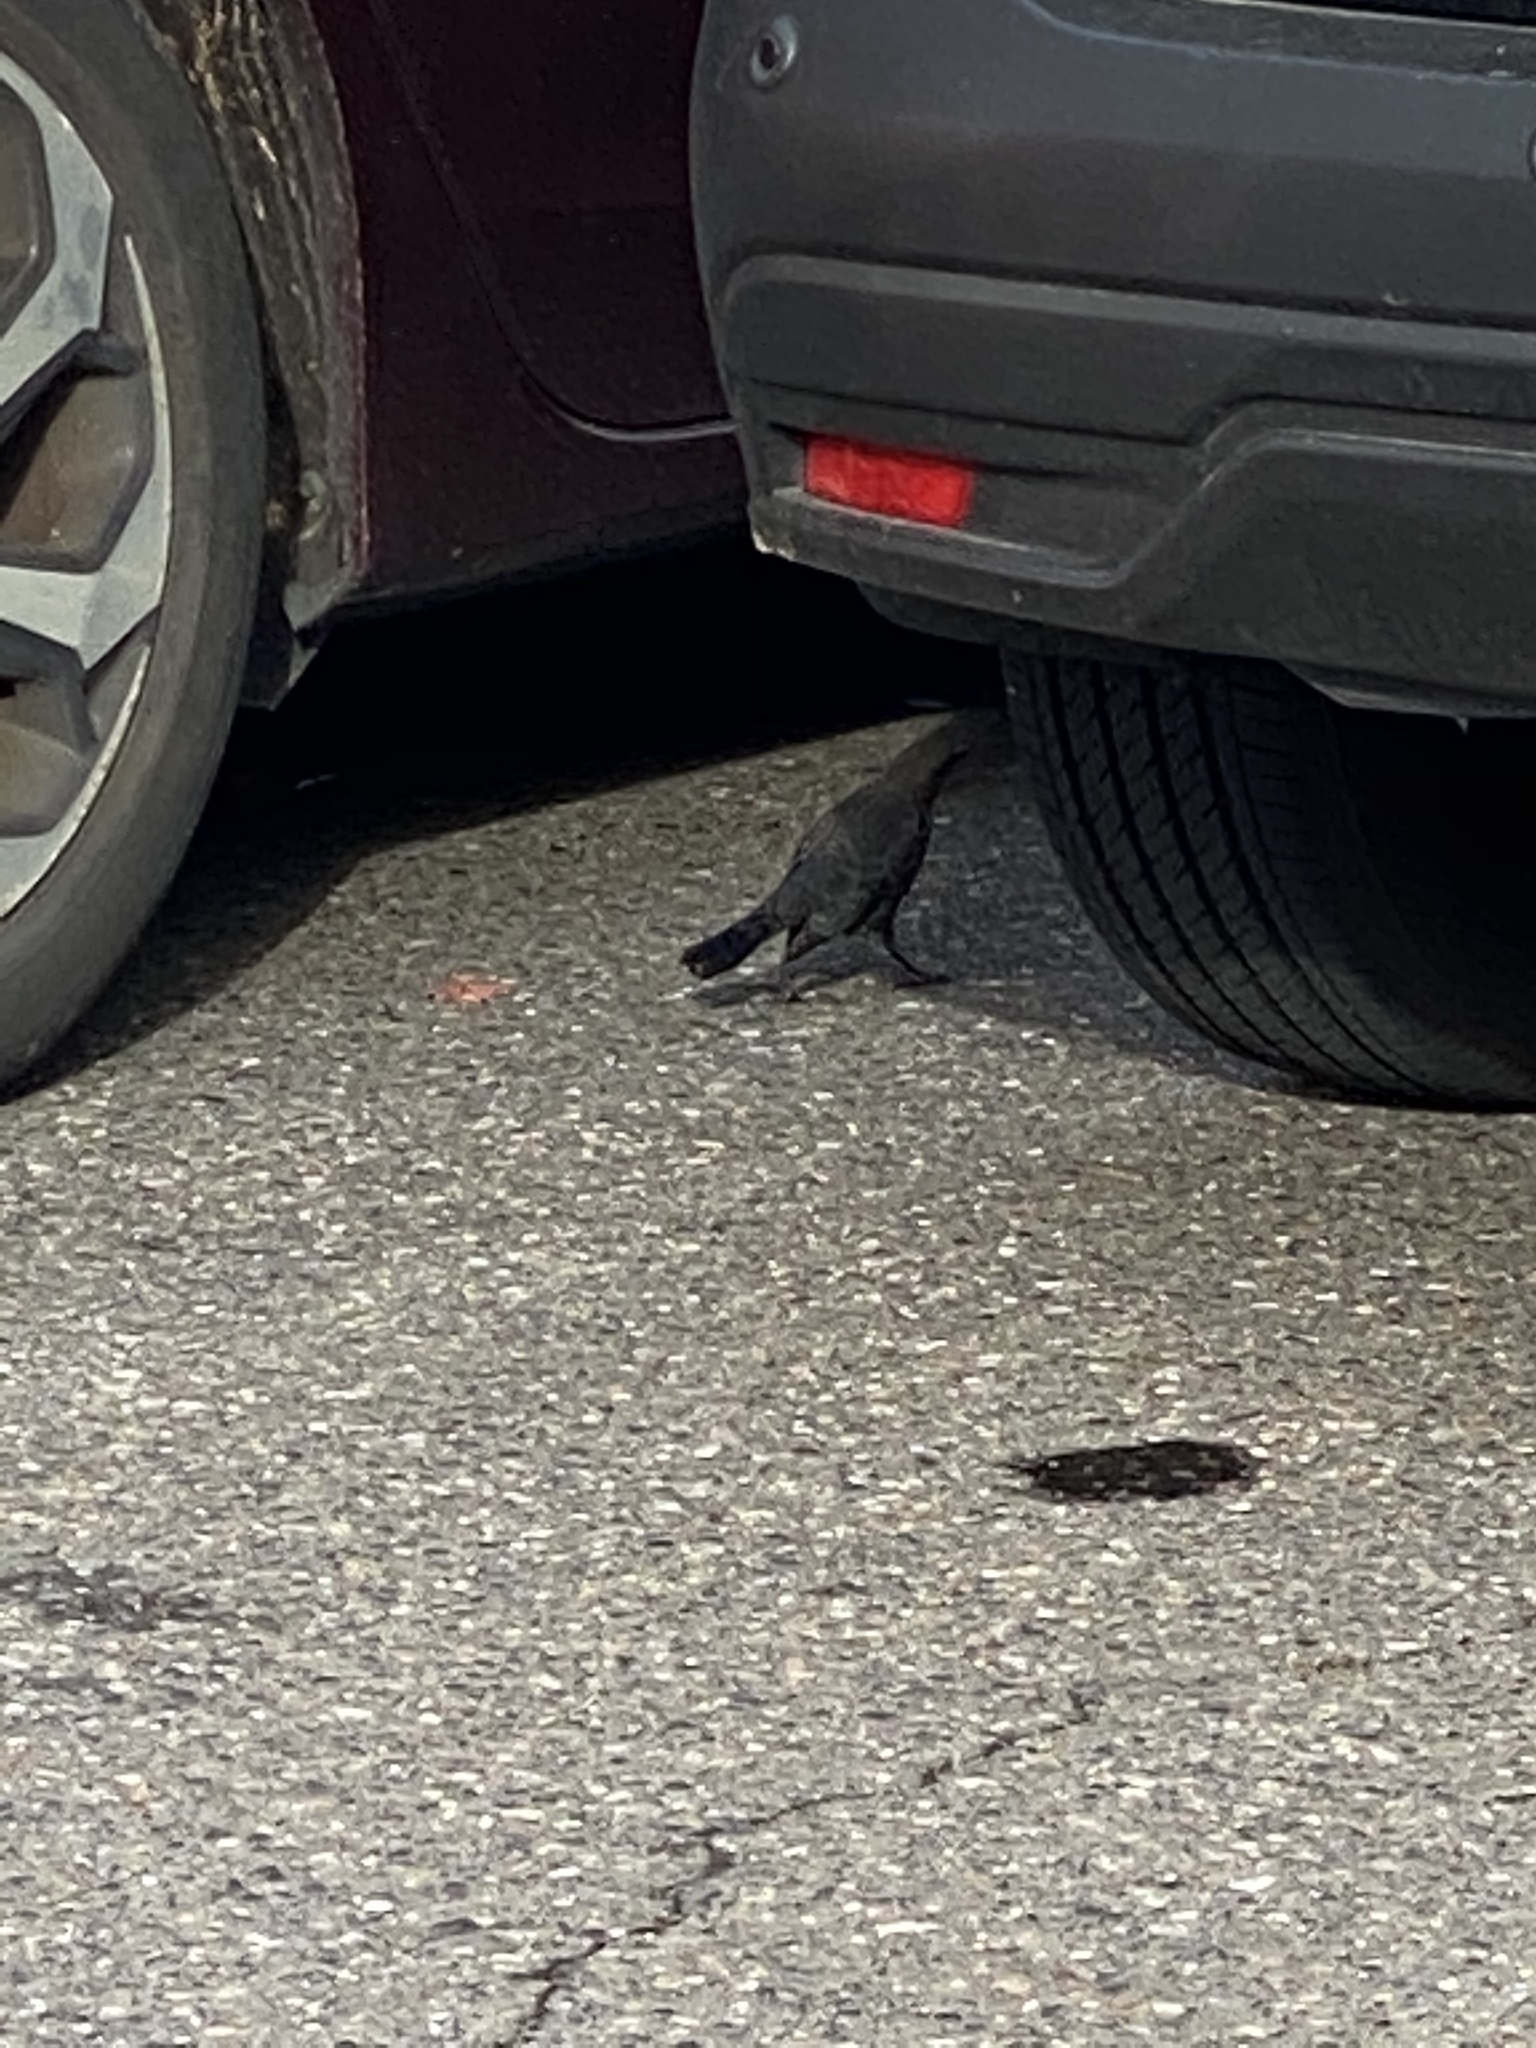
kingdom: Animalia
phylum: Chordata
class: Aves
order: Passeriformes
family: Icteridae
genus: Euphagus
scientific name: Euphagus cyanocephalus
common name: Brewer's blackbird
